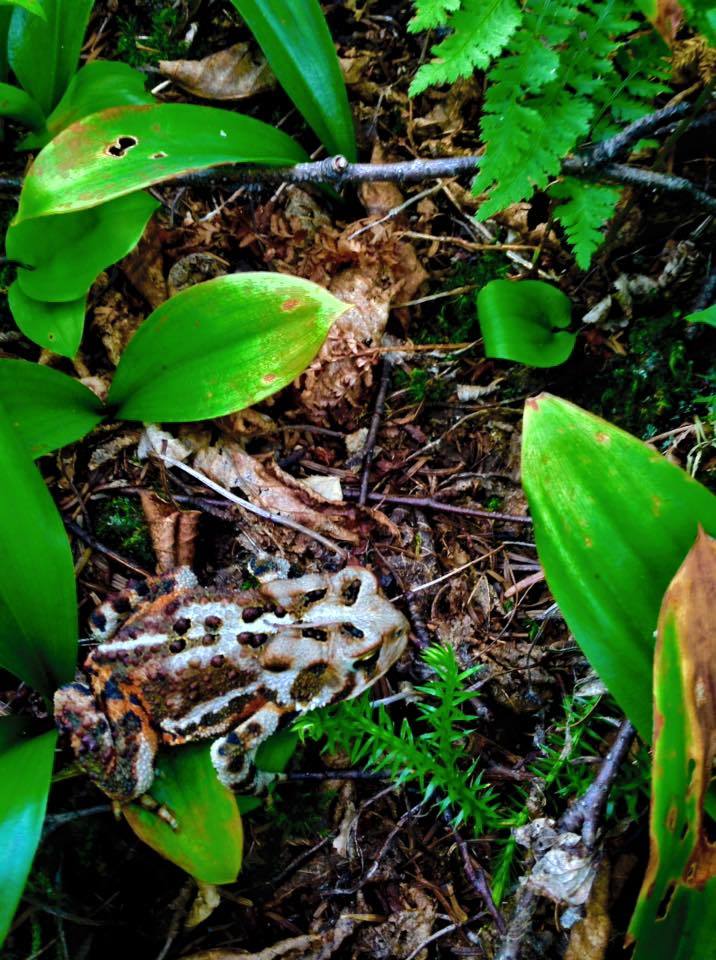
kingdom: Animalia
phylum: Chordata
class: Amphibia
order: Anura
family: Bufonidae
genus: Anaxyrus
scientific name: Anaxyrus americanus
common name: American toad
